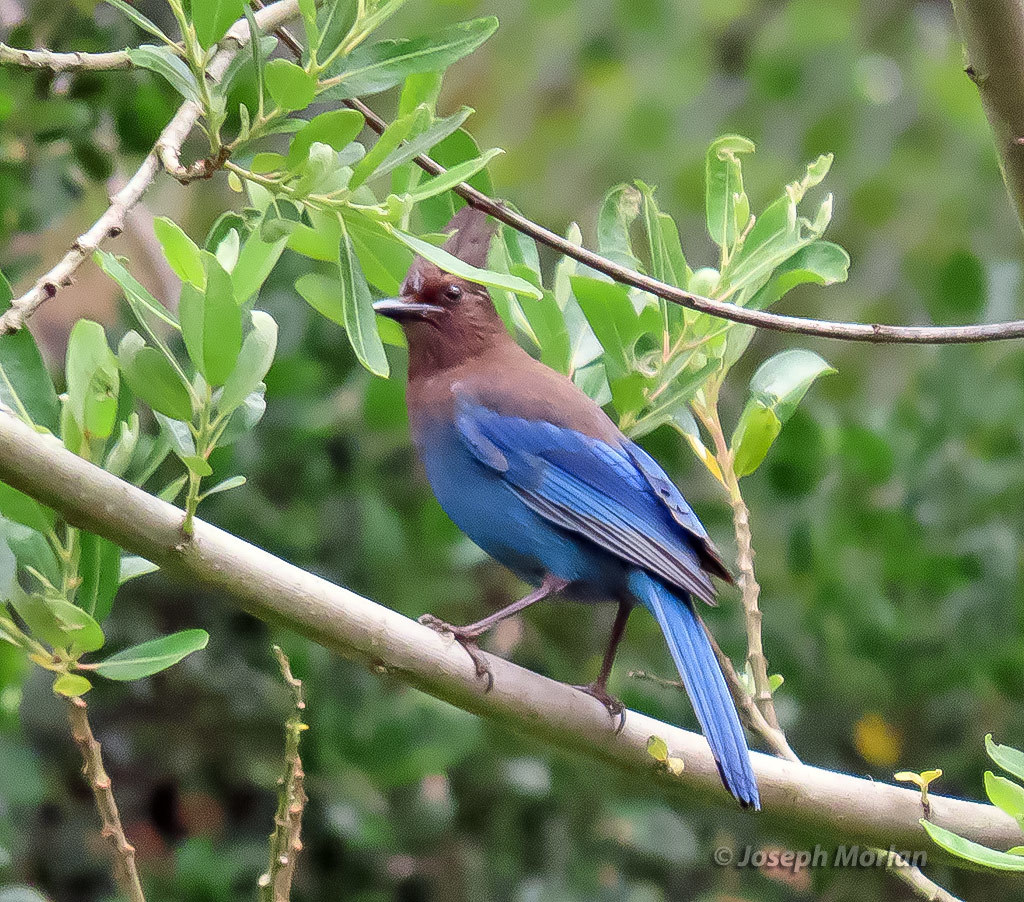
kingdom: Animalia
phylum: Chordata
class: Aves
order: Passeriformes
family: Corvidae
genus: Cyanocitta
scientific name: Cyanocitta stelleri
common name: Steller's jay
